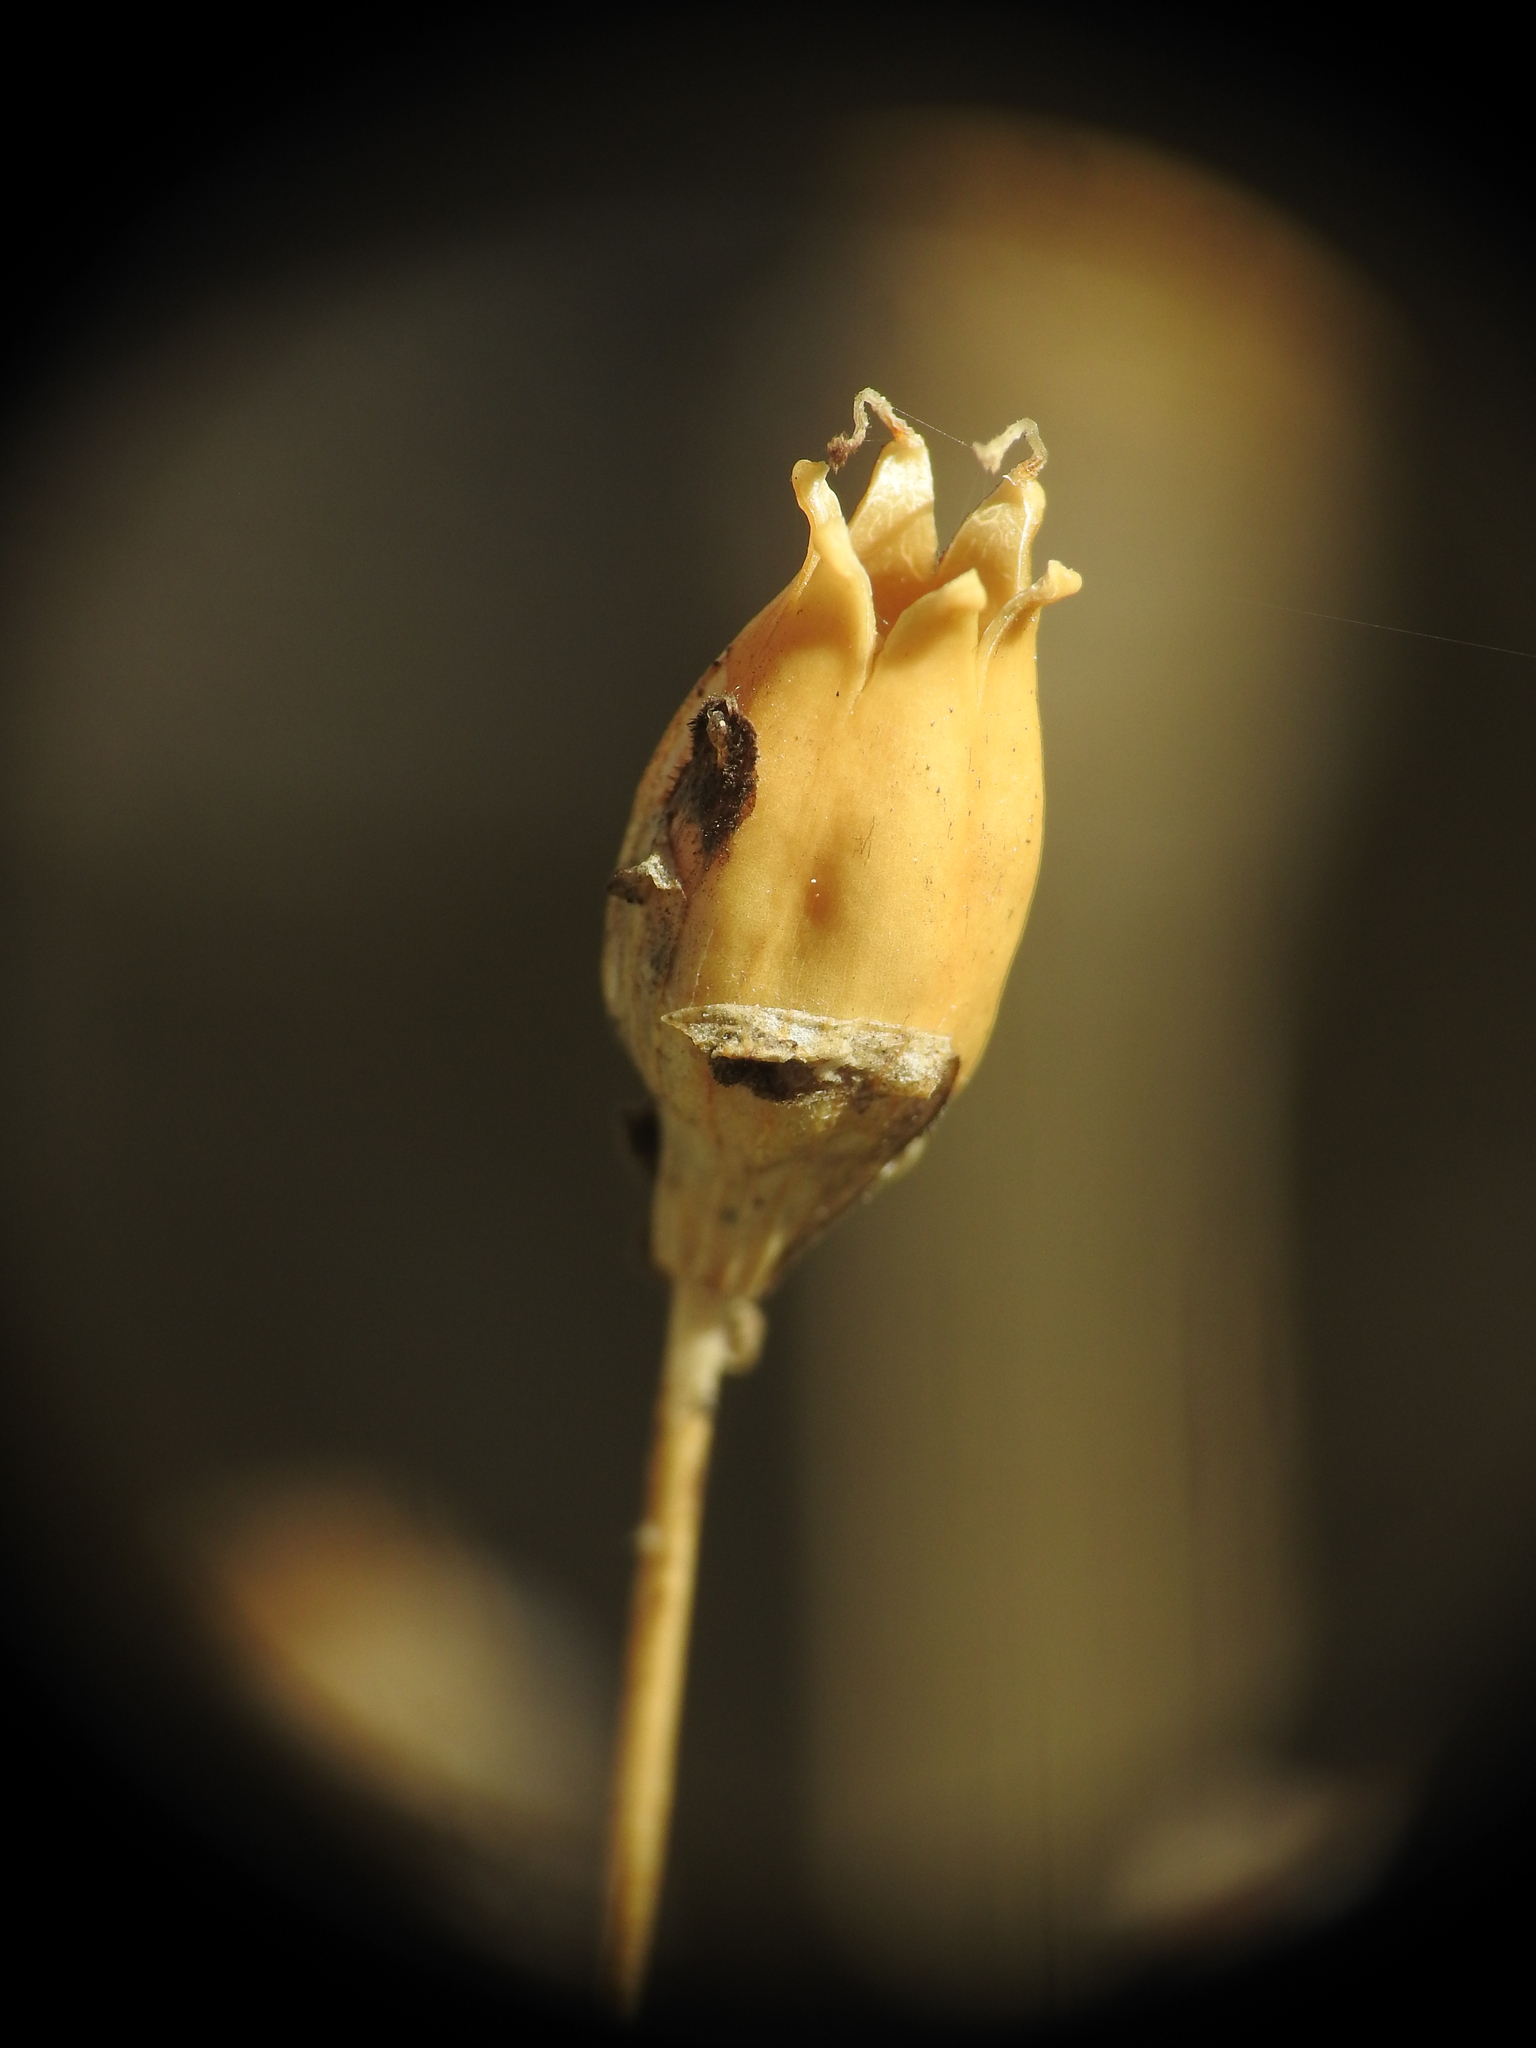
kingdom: Plantae
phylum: Tracheophyta
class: Magnoliopsida
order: Caryophyllales
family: Caryophyllaceae
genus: Silene
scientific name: Silene saxifraga
